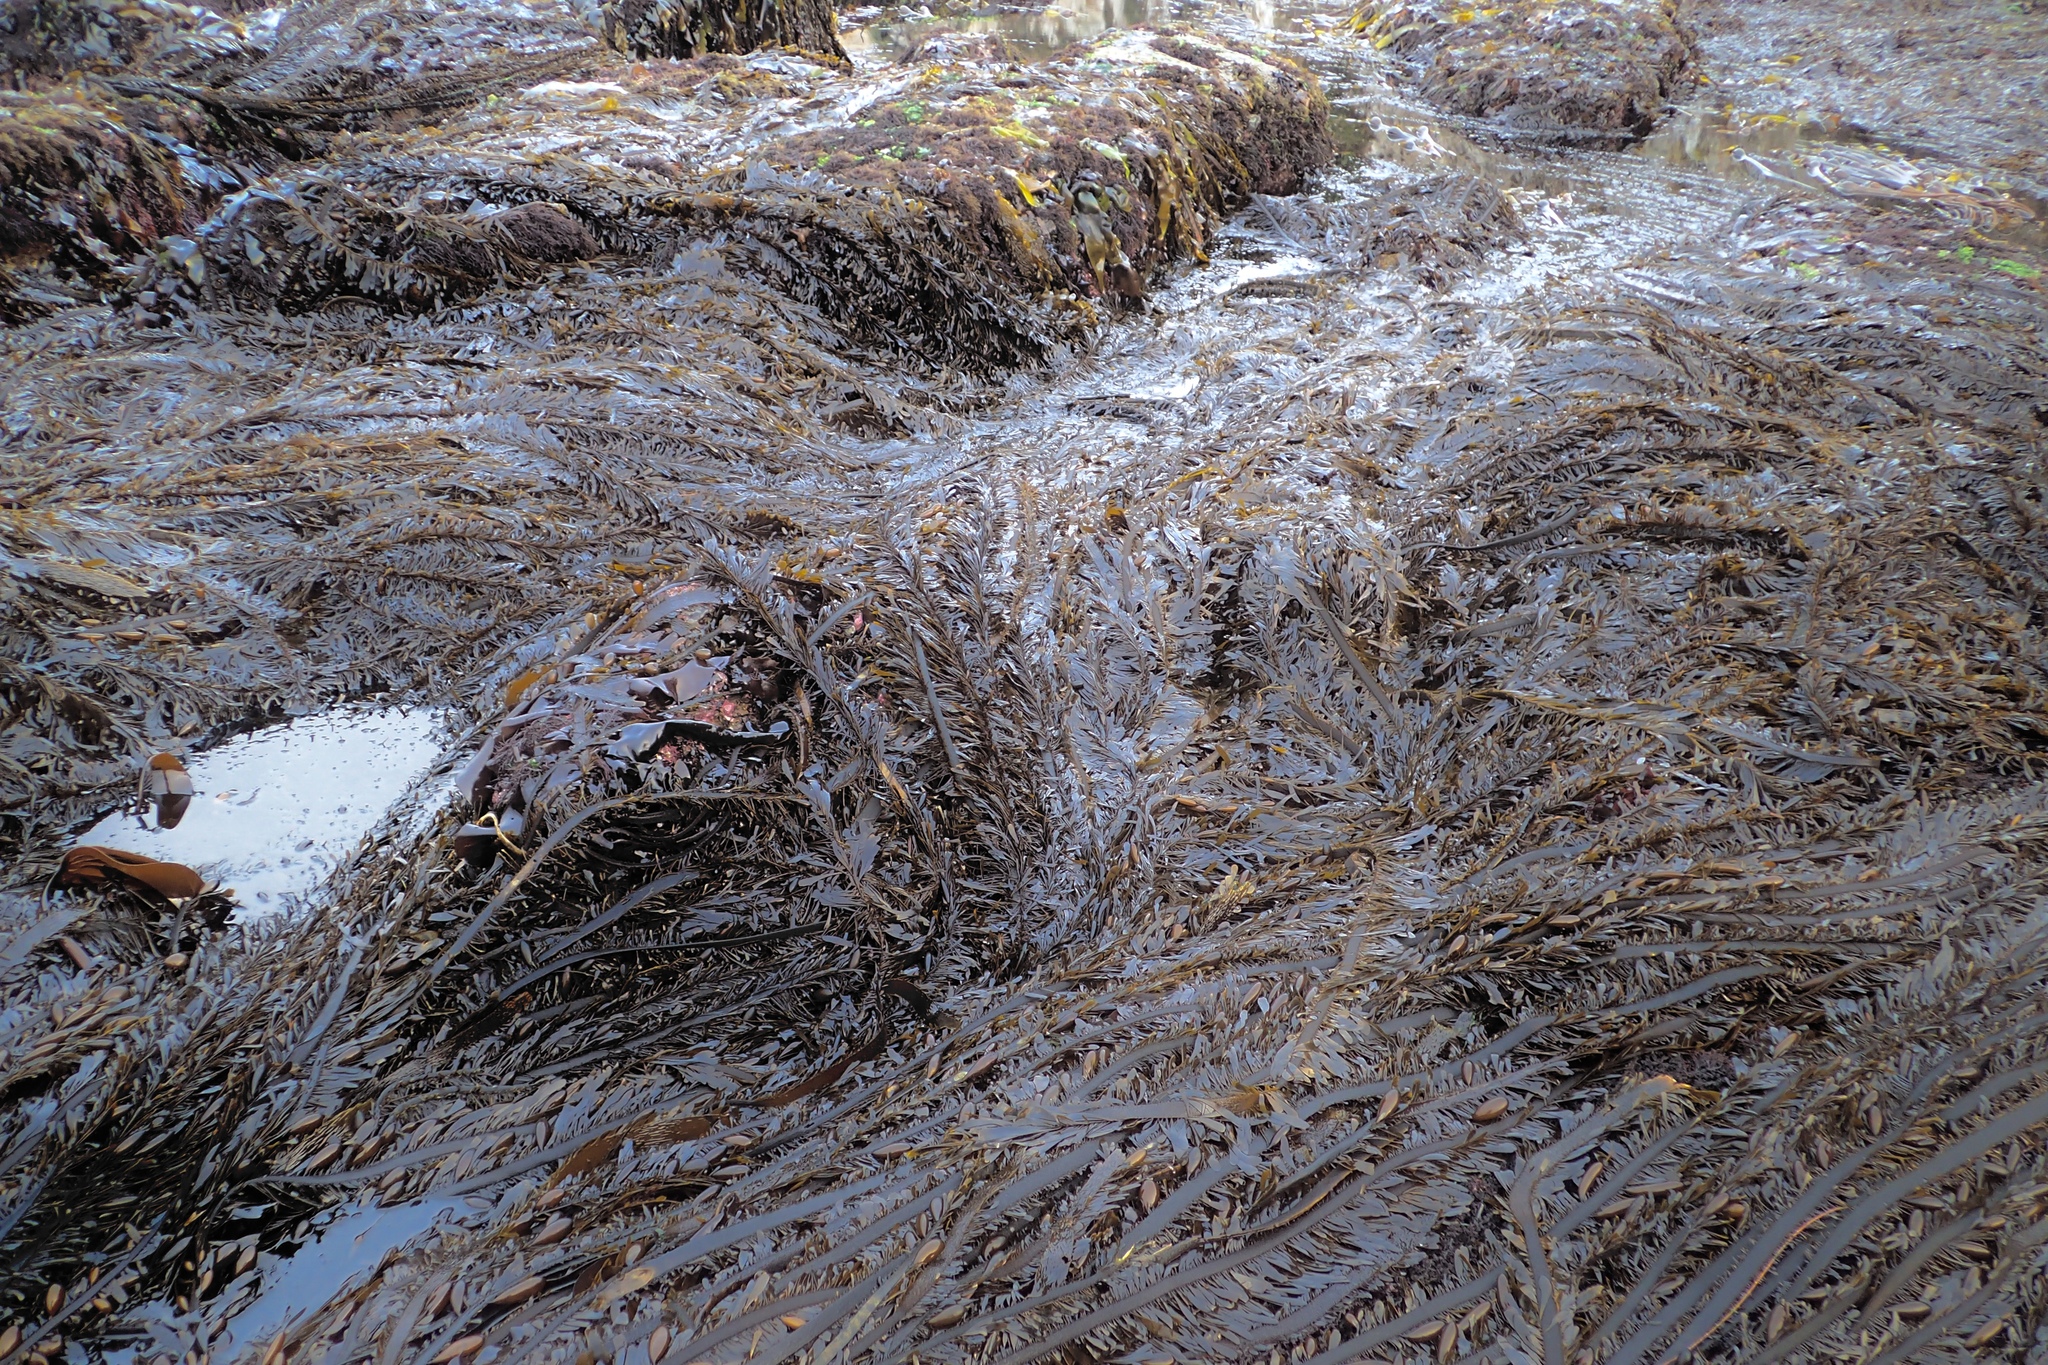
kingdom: Chromista
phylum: Ochrophyta
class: Phaeophyceae
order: Laminariales
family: Lessoniaceae
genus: Egregia
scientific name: Egregia menziesii
